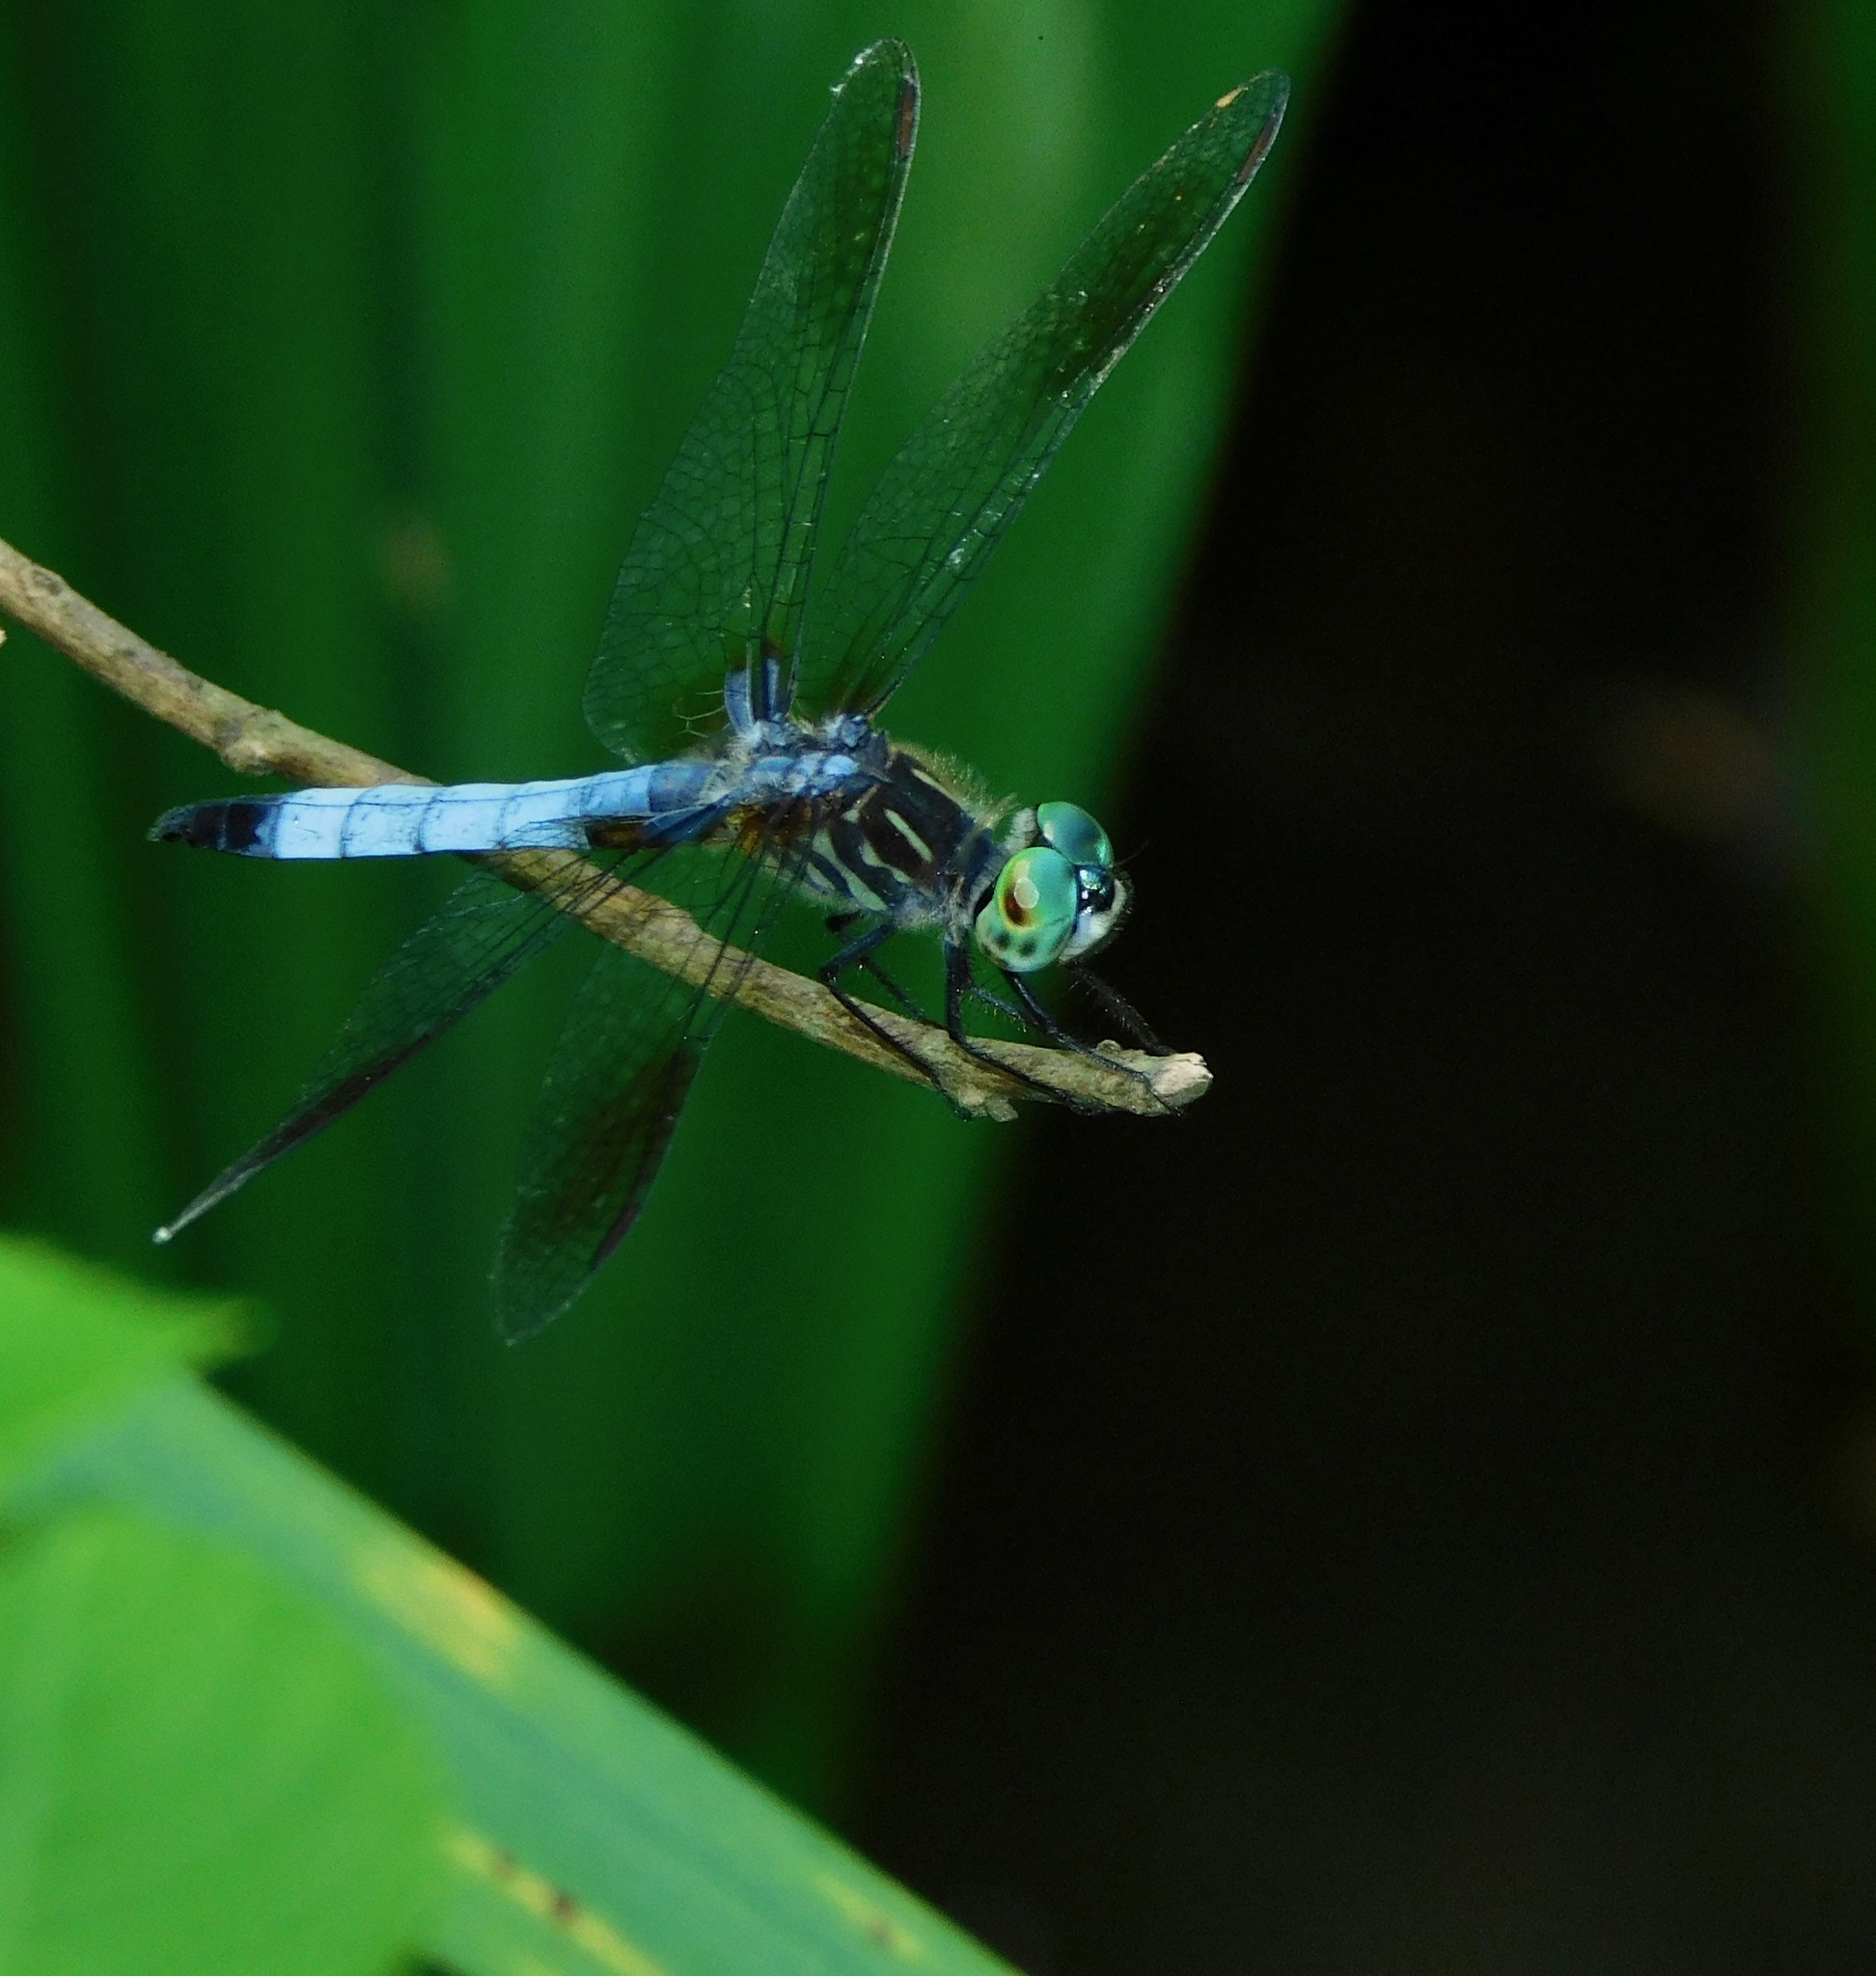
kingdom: Animalia
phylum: Arthropoda
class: Insecta
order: Odonata
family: Libellulidae
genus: Pachydiplax
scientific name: Pachydiplax longipennis
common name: Blue dasher
